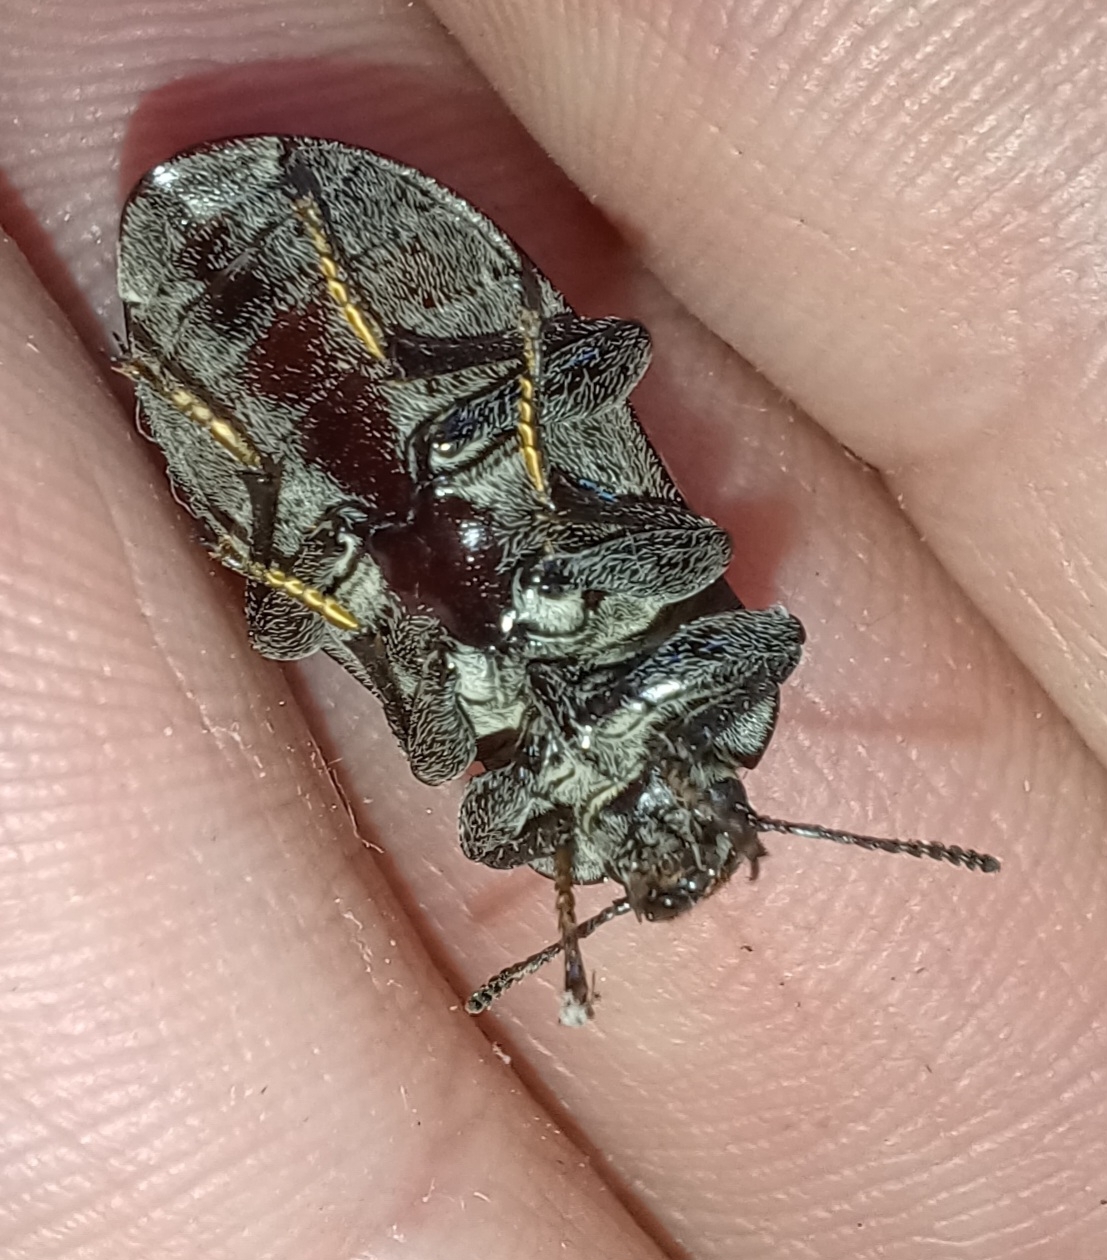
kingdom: Animalia
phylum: Arthropoda
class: Insecta
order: Coleoptera
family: Tenebrionidae
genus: Pachycoelia
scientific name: Pachycoelia
